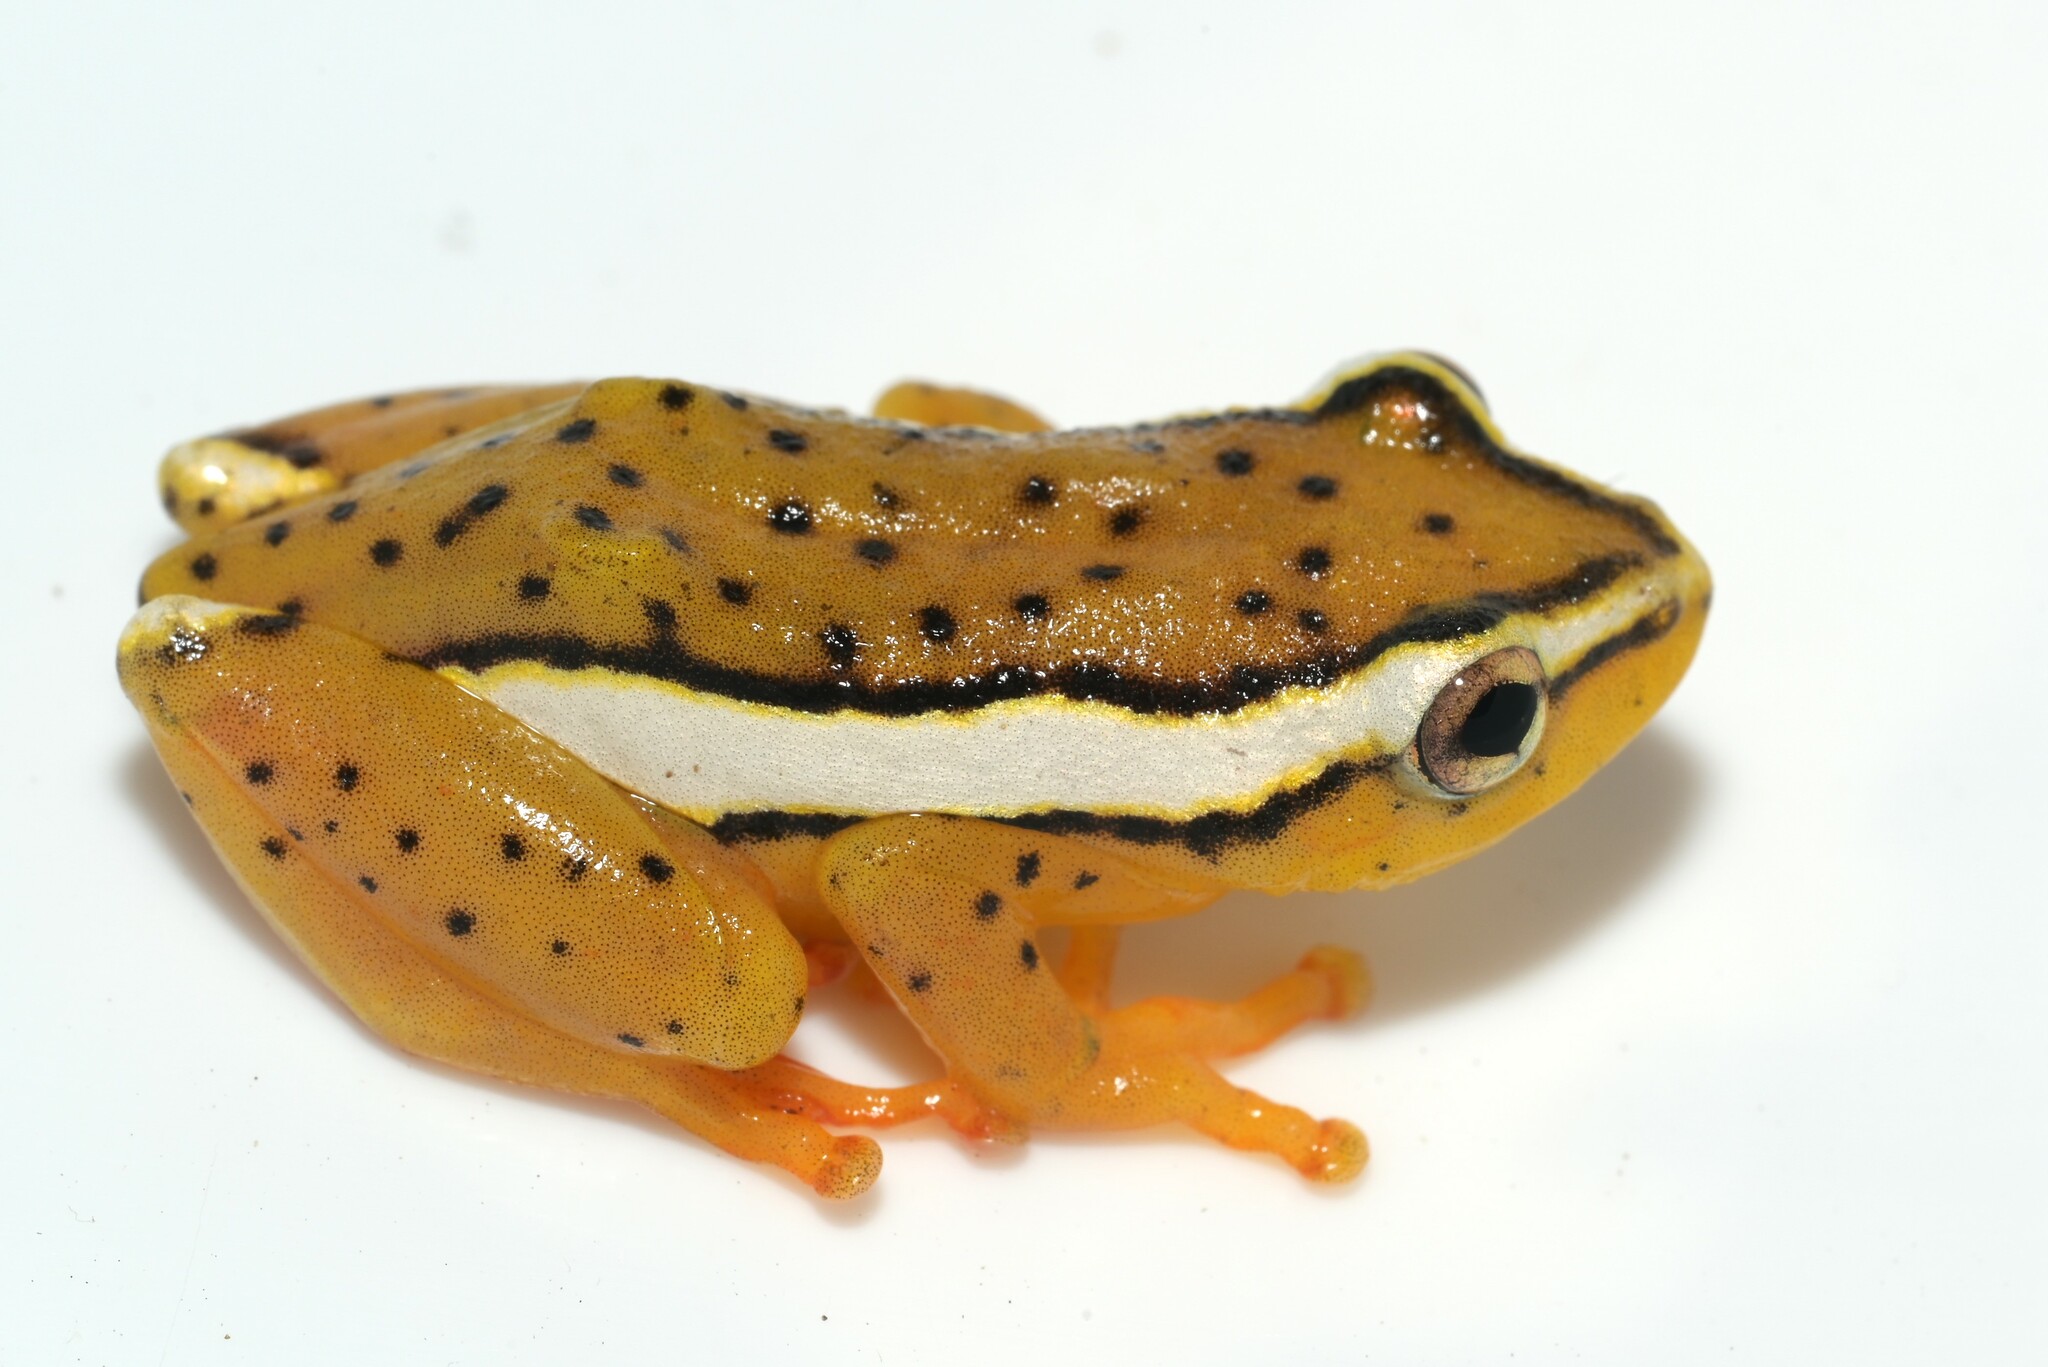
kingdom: Animalia
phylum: Chordata
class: Amphibia
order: Anura
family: Hyperoliidae
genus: Hyperolius
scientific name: Hyperolius mitchelli
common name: Mitchell's reed frog
